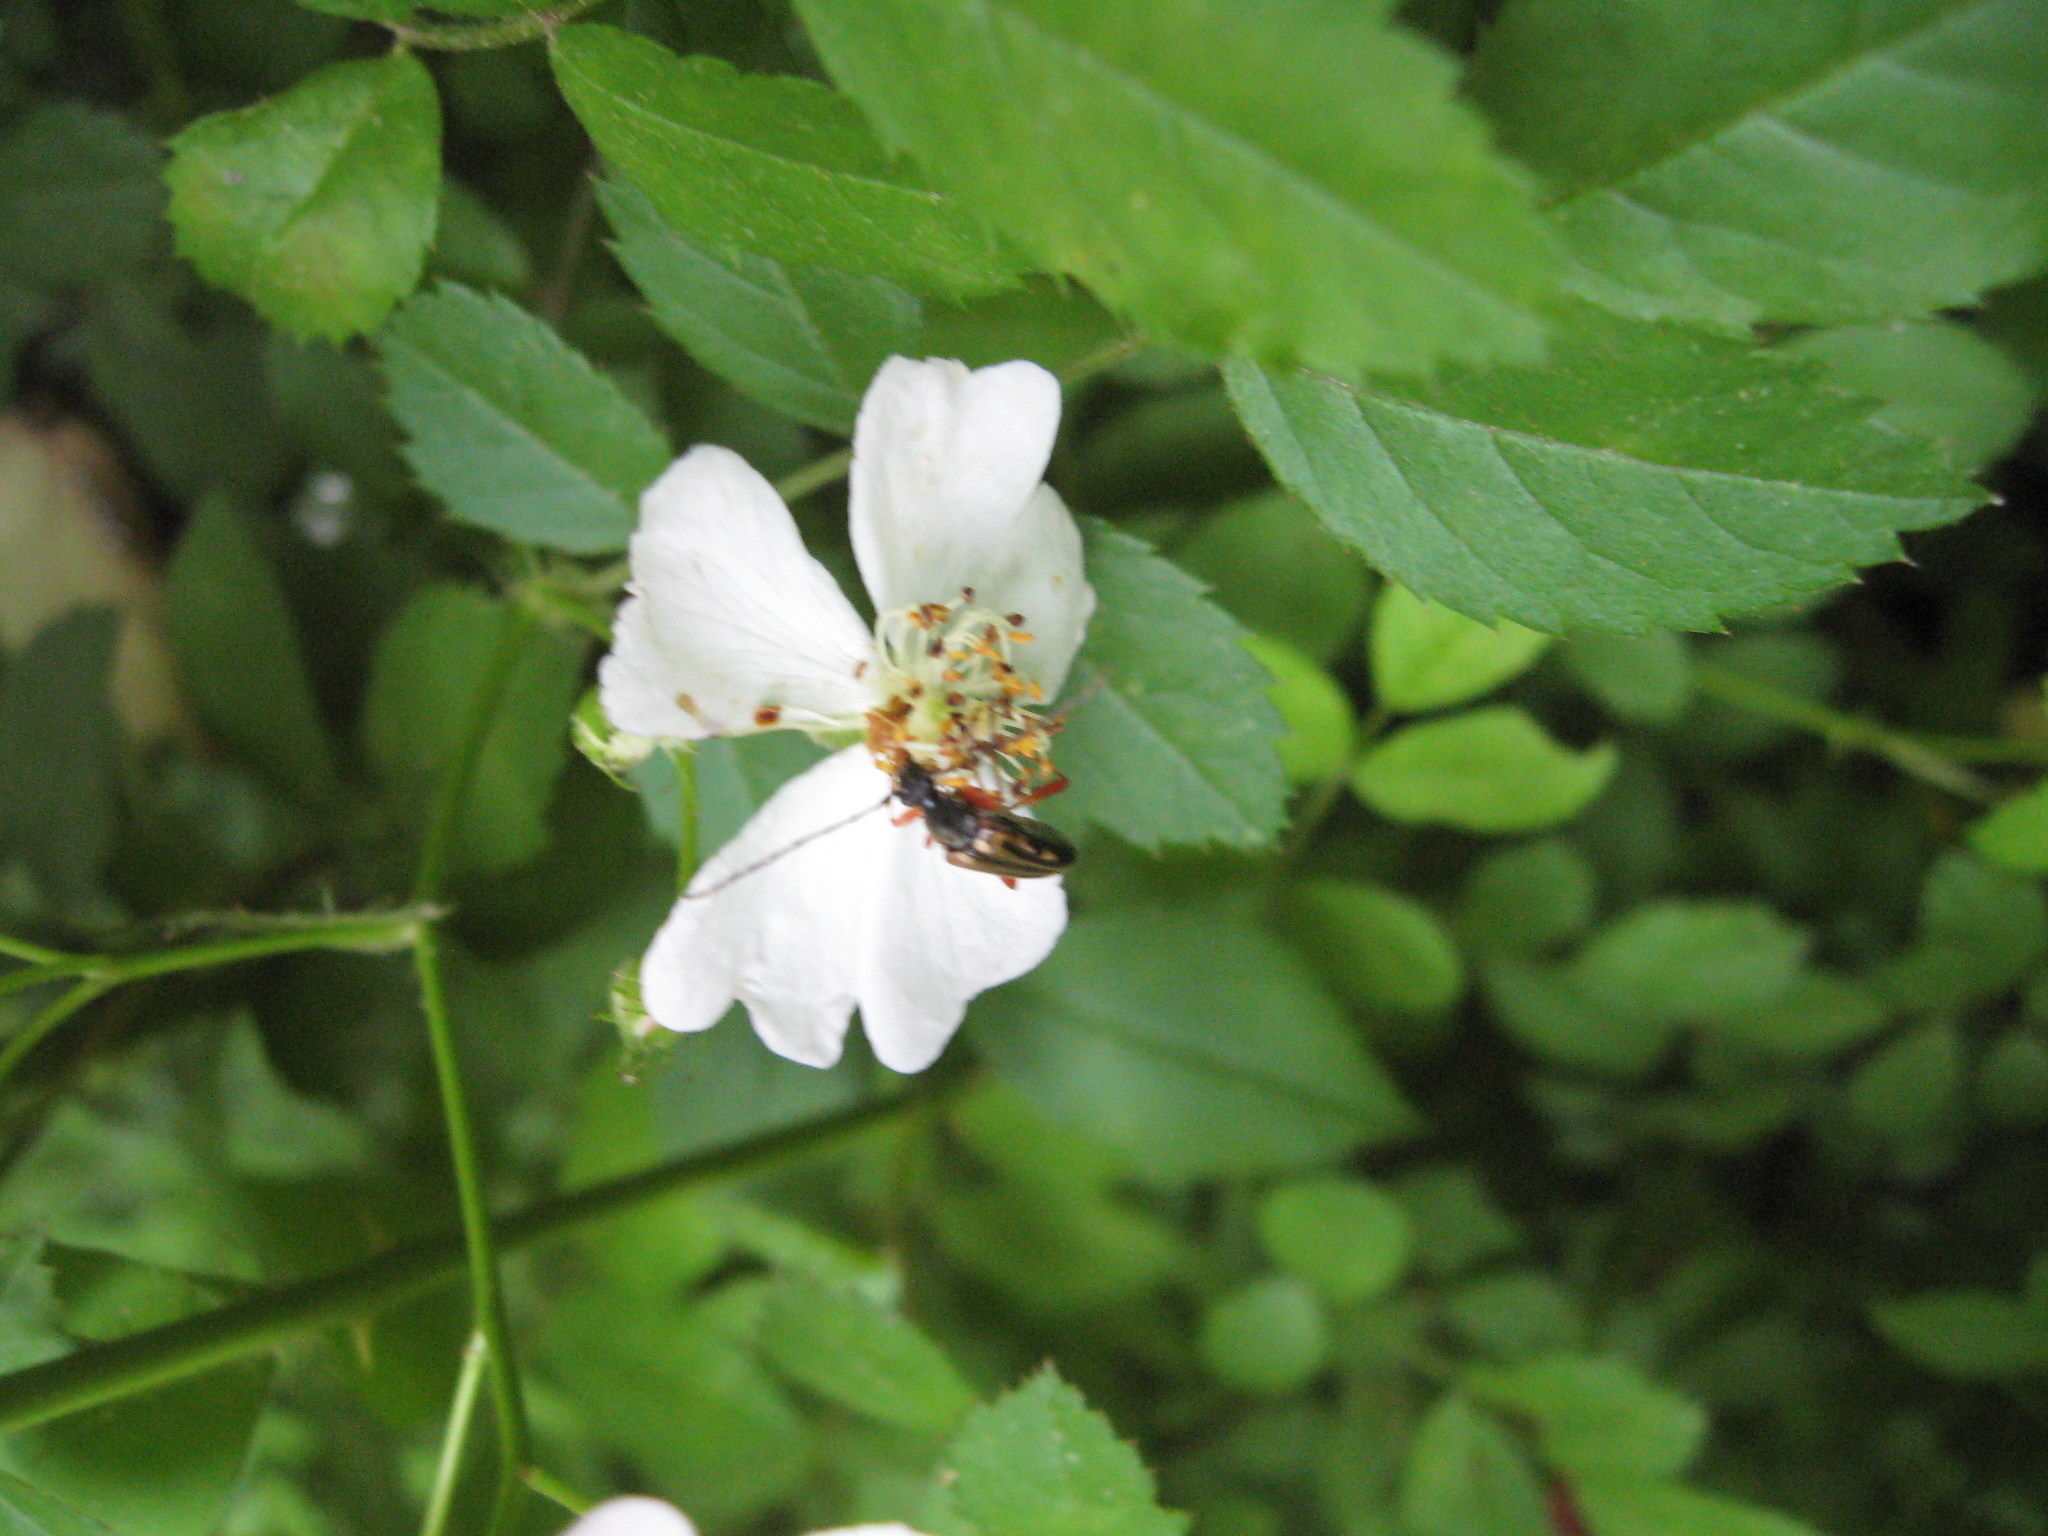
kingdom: Animalia
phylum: Arthropoda
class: Insecta
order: Coleoptera
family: Cerambycidae
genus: Analeptura
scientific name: Analeptura lineola
